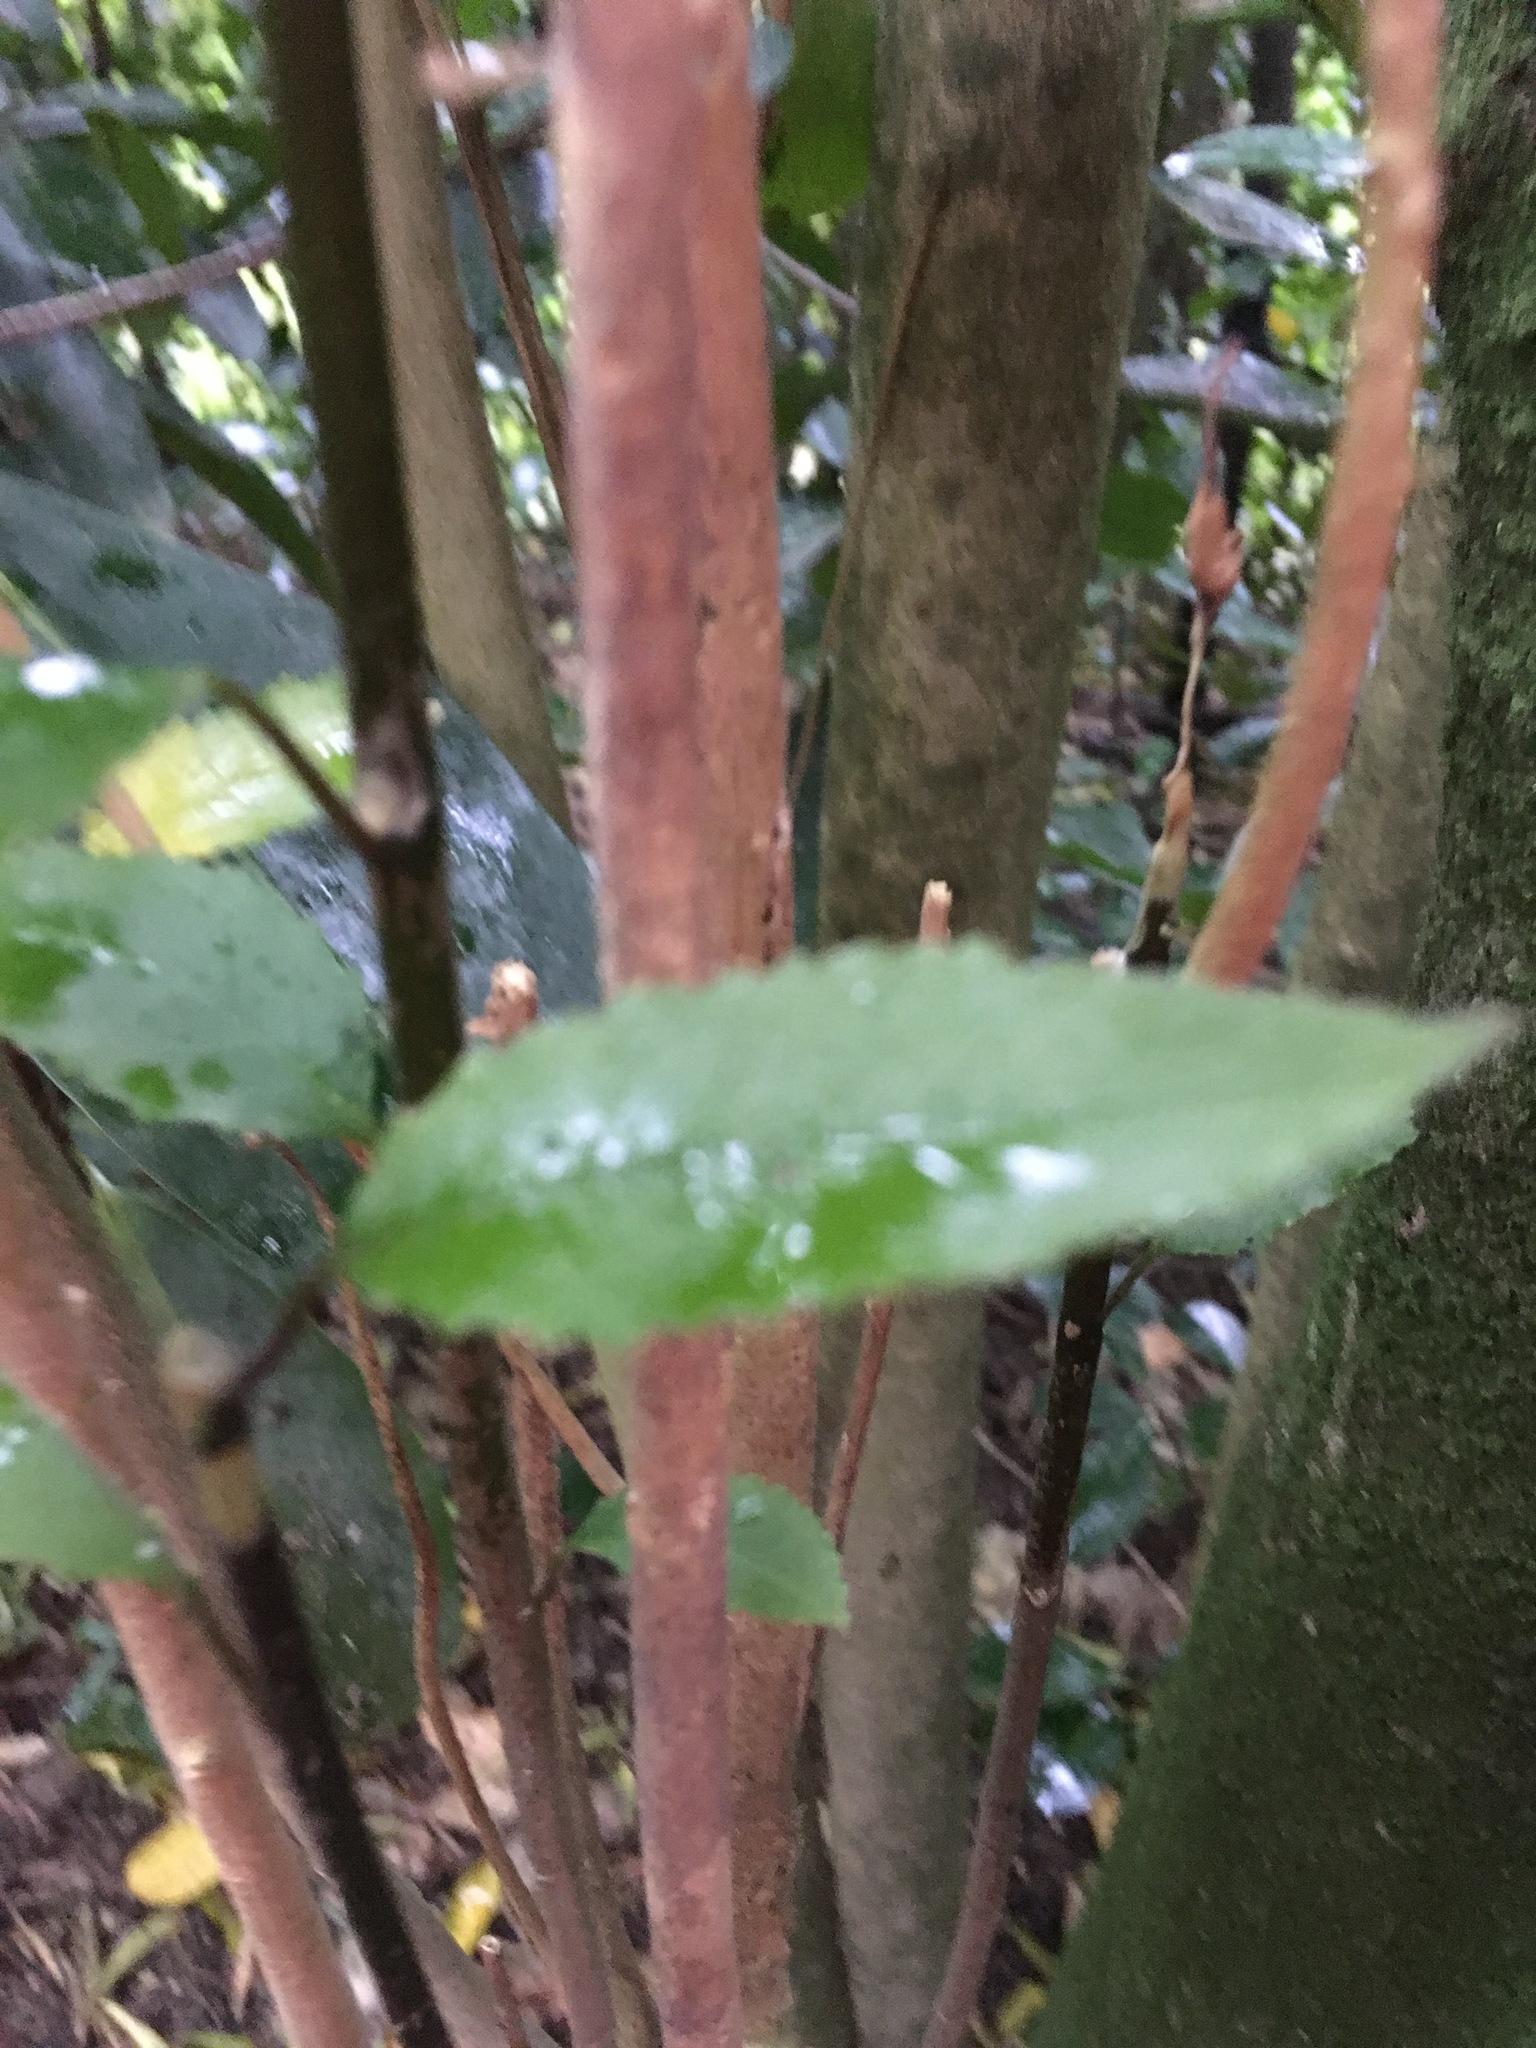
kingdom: Plantae
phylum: Tracheophyta
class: Magnoliopsida
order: Malpighiales
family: Violaceae
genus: Melicytus
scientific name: Melicytus ramiflorus
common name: Mahoe
